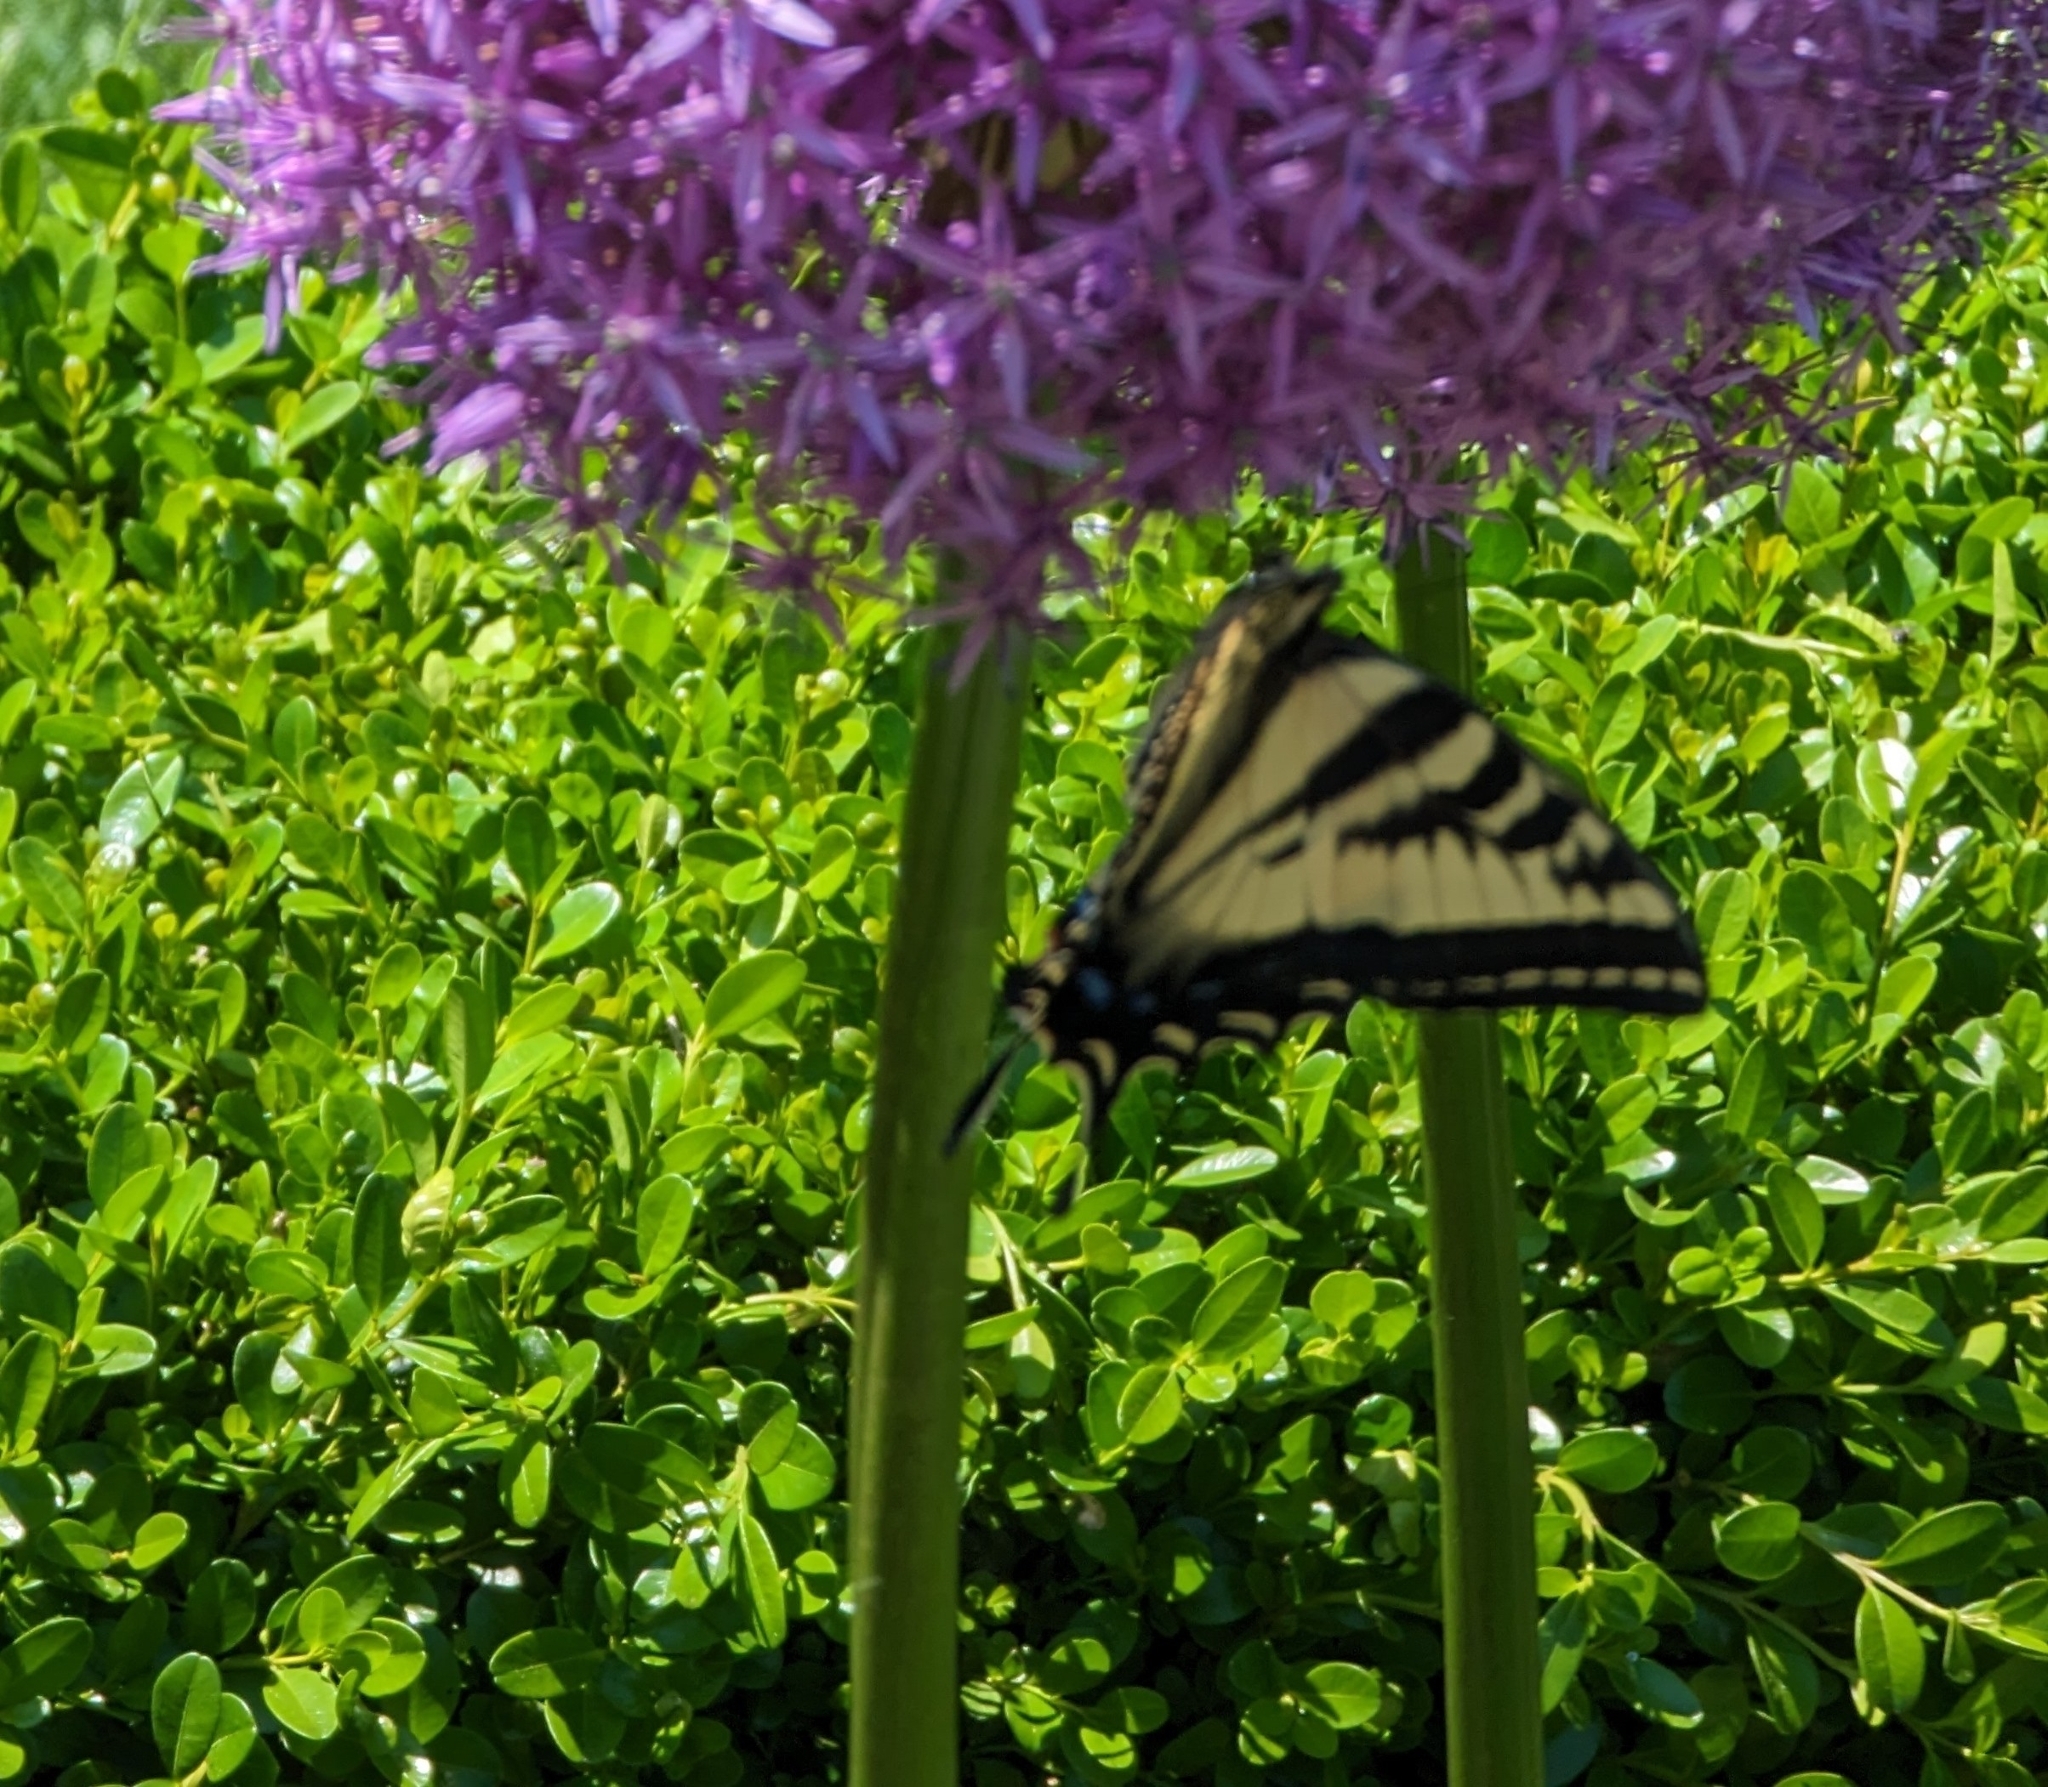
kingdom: Animalia
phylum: Arthropoda
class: Insecta
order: Lepidoptera
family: Papilionidae
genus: Papilio
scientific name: Papilio rutulus
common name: Western tiger swallowtail
